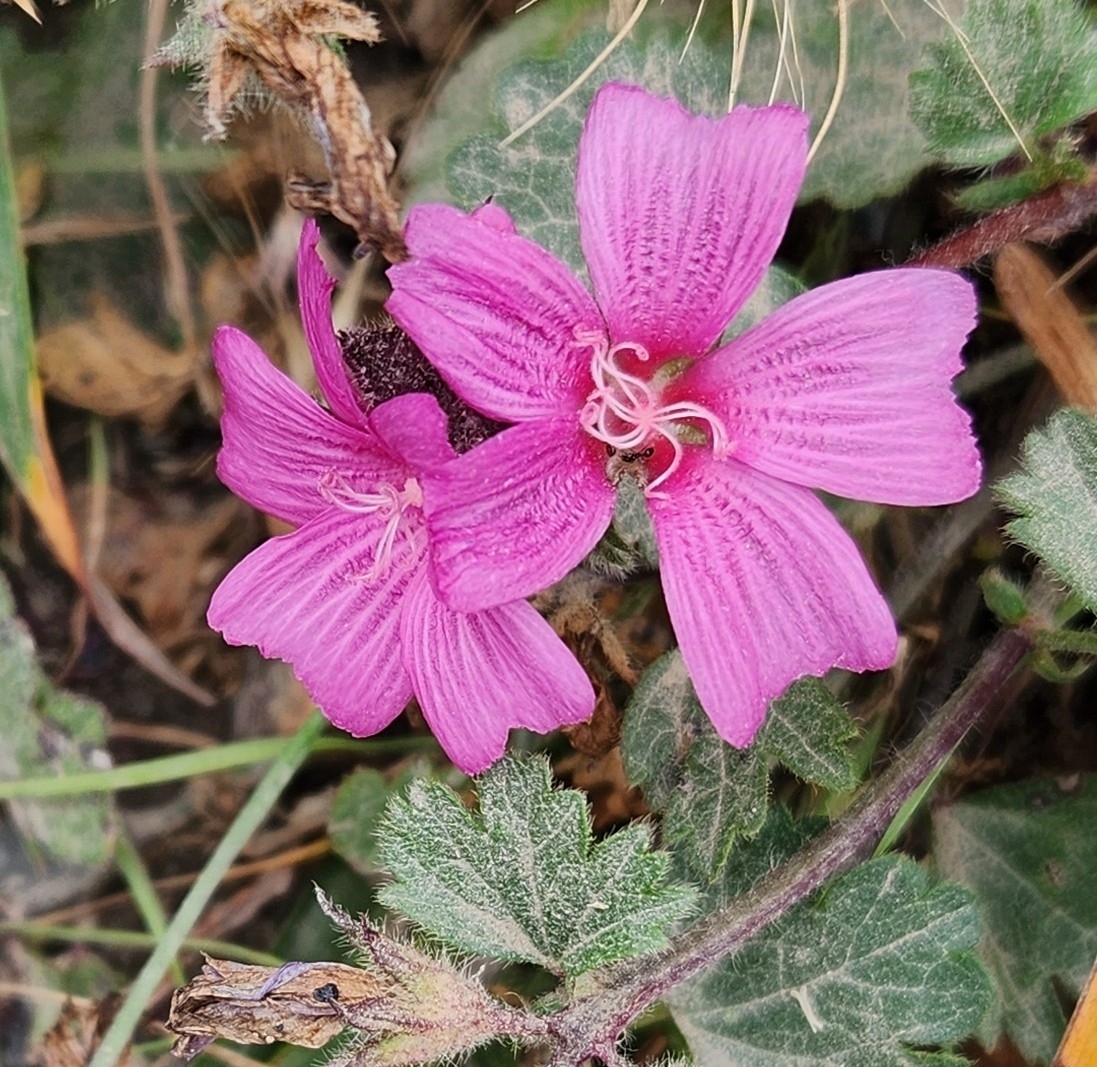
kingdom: Plantae
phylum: Tracheophyta
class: Magnoliopsida
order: Malvales
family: Malvaceae
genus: Sidalcea
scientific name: Sidalcea malviflora
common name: Greek mallow
